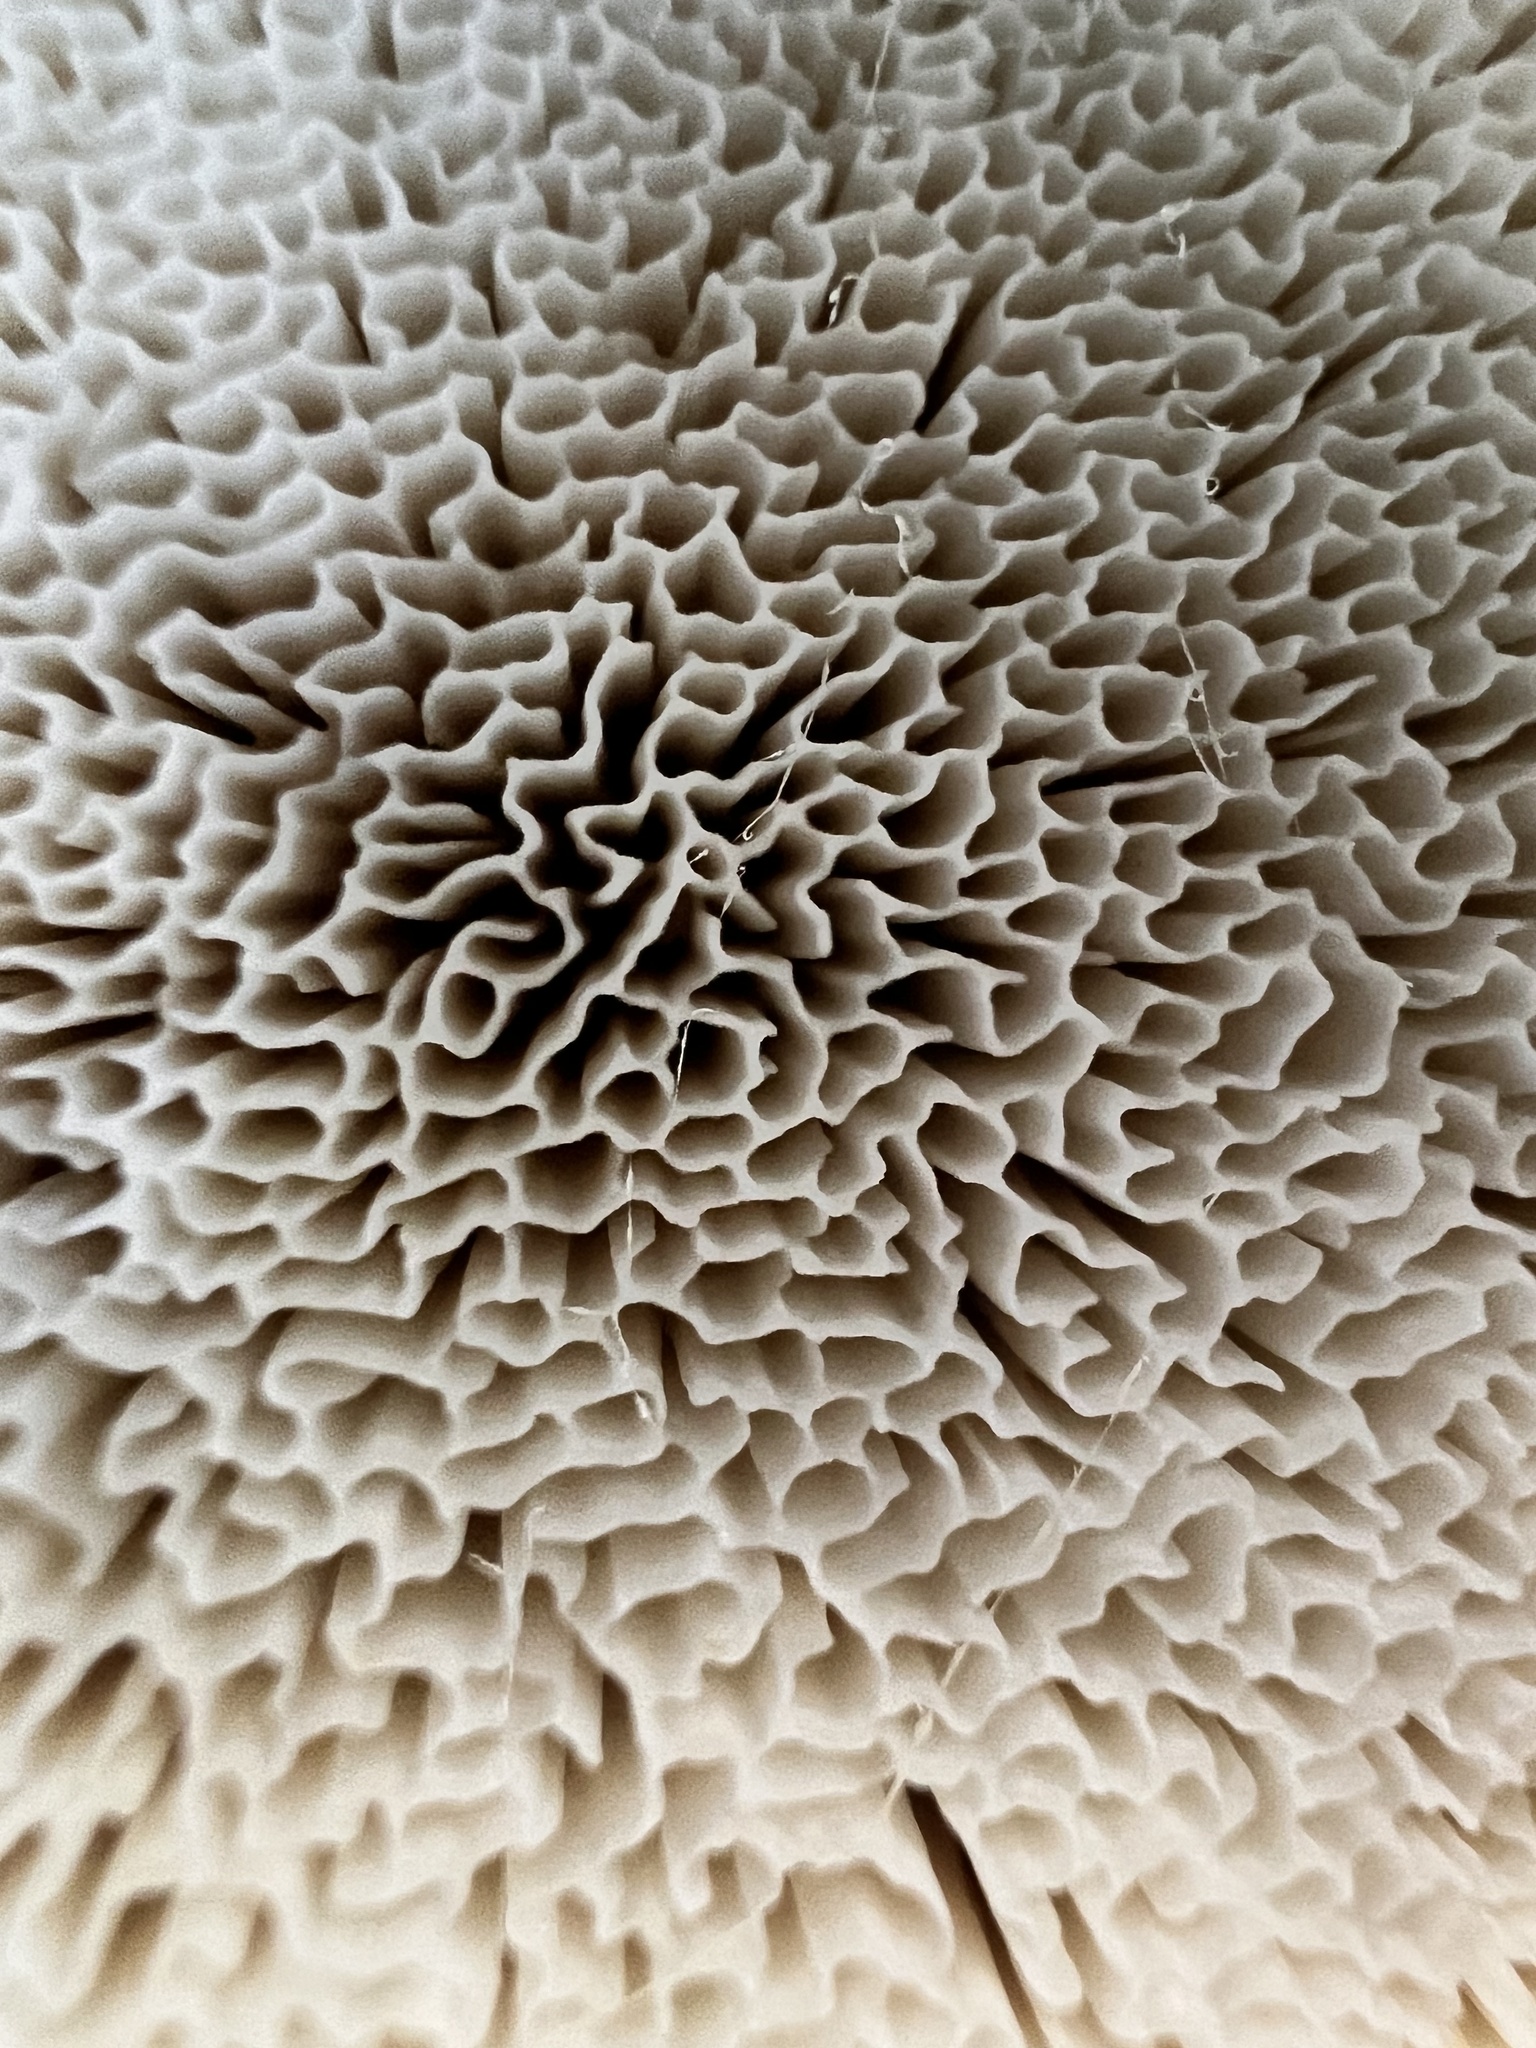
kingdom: Fungi
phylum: Basidiomycota
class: Agaricomycetes
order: Russulales
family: Bondarzewiaceae
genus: Bondarzewia
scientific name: Bondarzewia berkeleyi
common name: Berkeley's polypore
